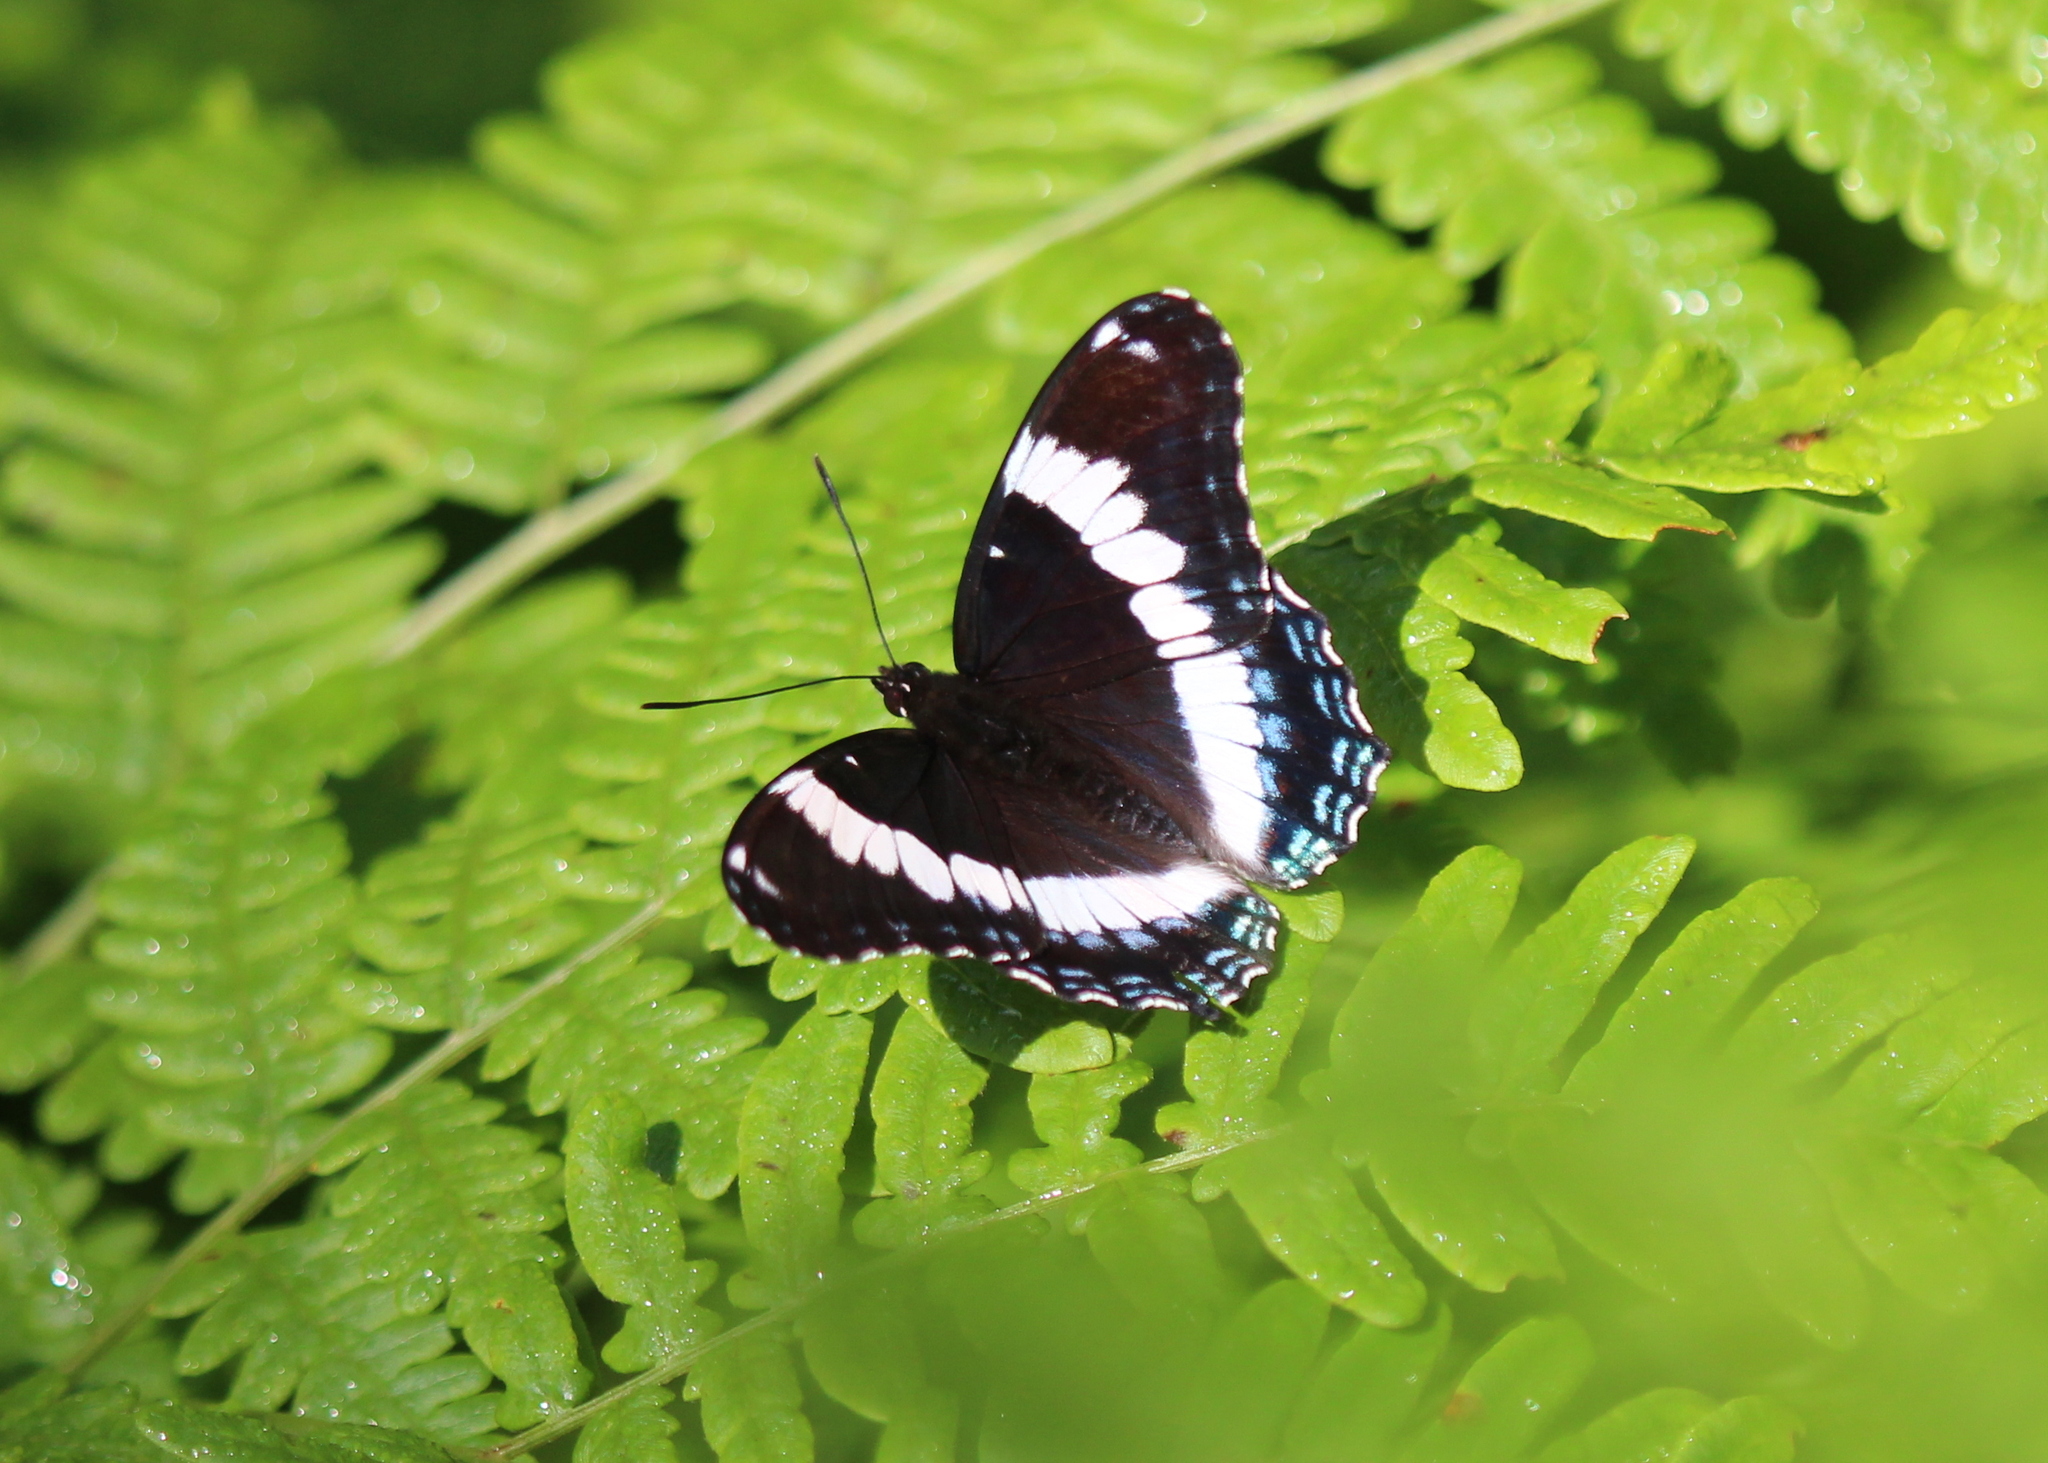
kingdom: Animalia
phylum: Arthropoda
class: Insecta
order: Lepidoptera
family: Nymphalidae
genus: Limenitis
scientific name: Limenitis arthemis
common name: Red-spotted admiral
